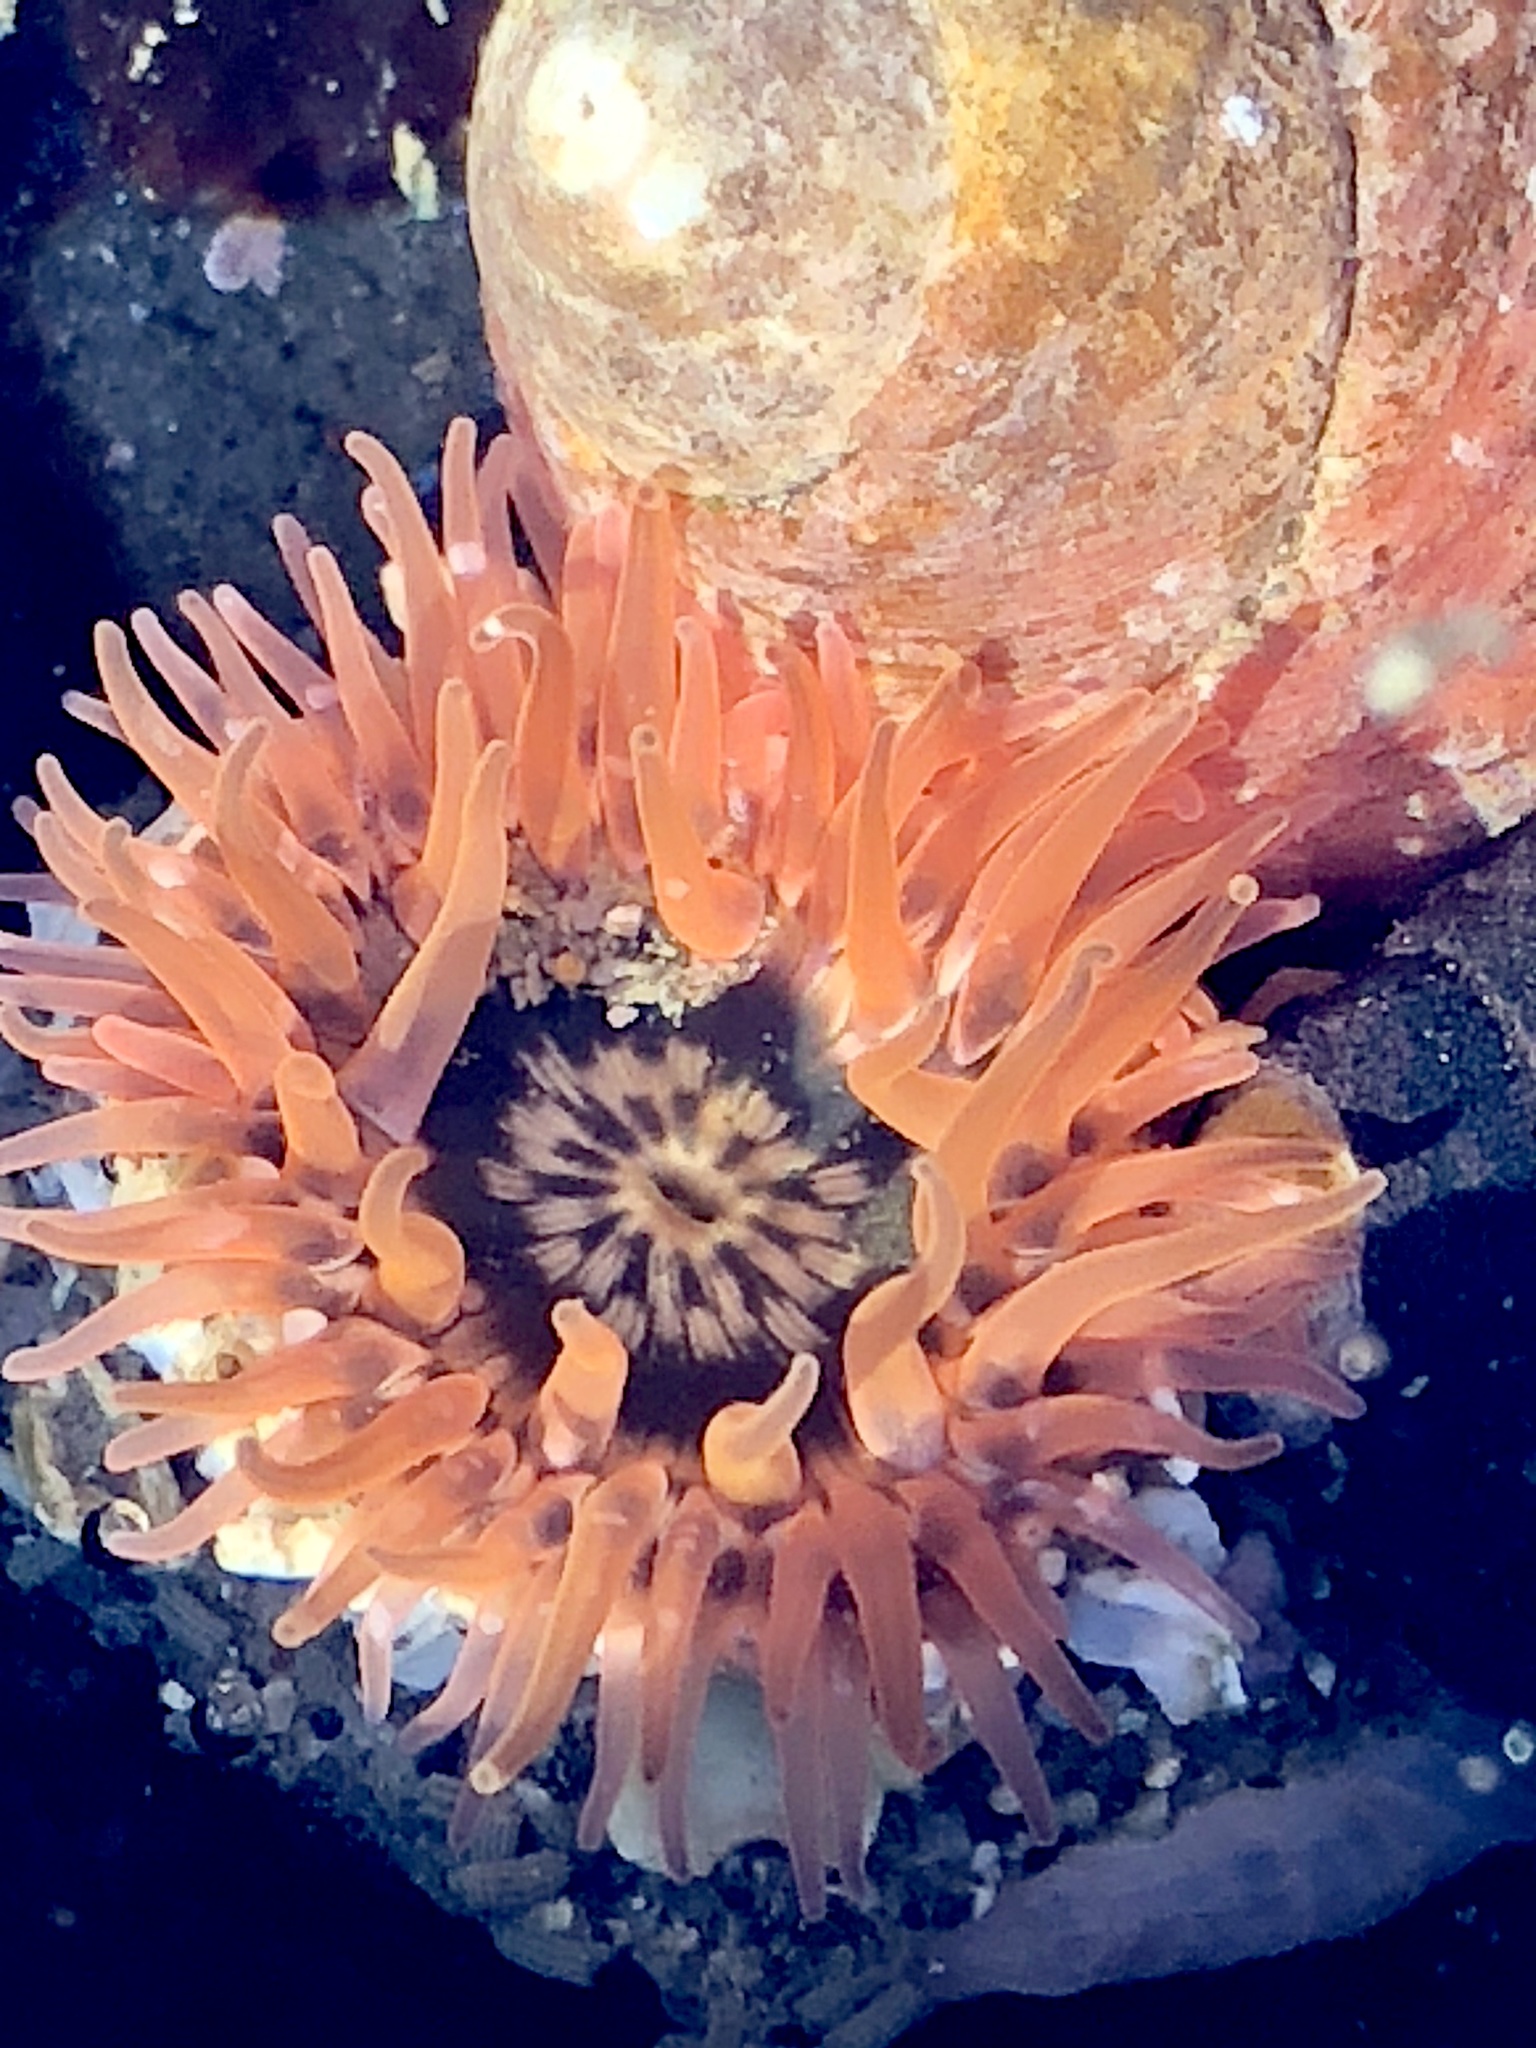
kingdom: Animalia
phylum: Cnidaria
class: Anthozoa
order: Actiniaria
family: Actiniidae
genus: Anthopleura
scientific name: Anthopleura artemisia
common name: Buried sea anemone
